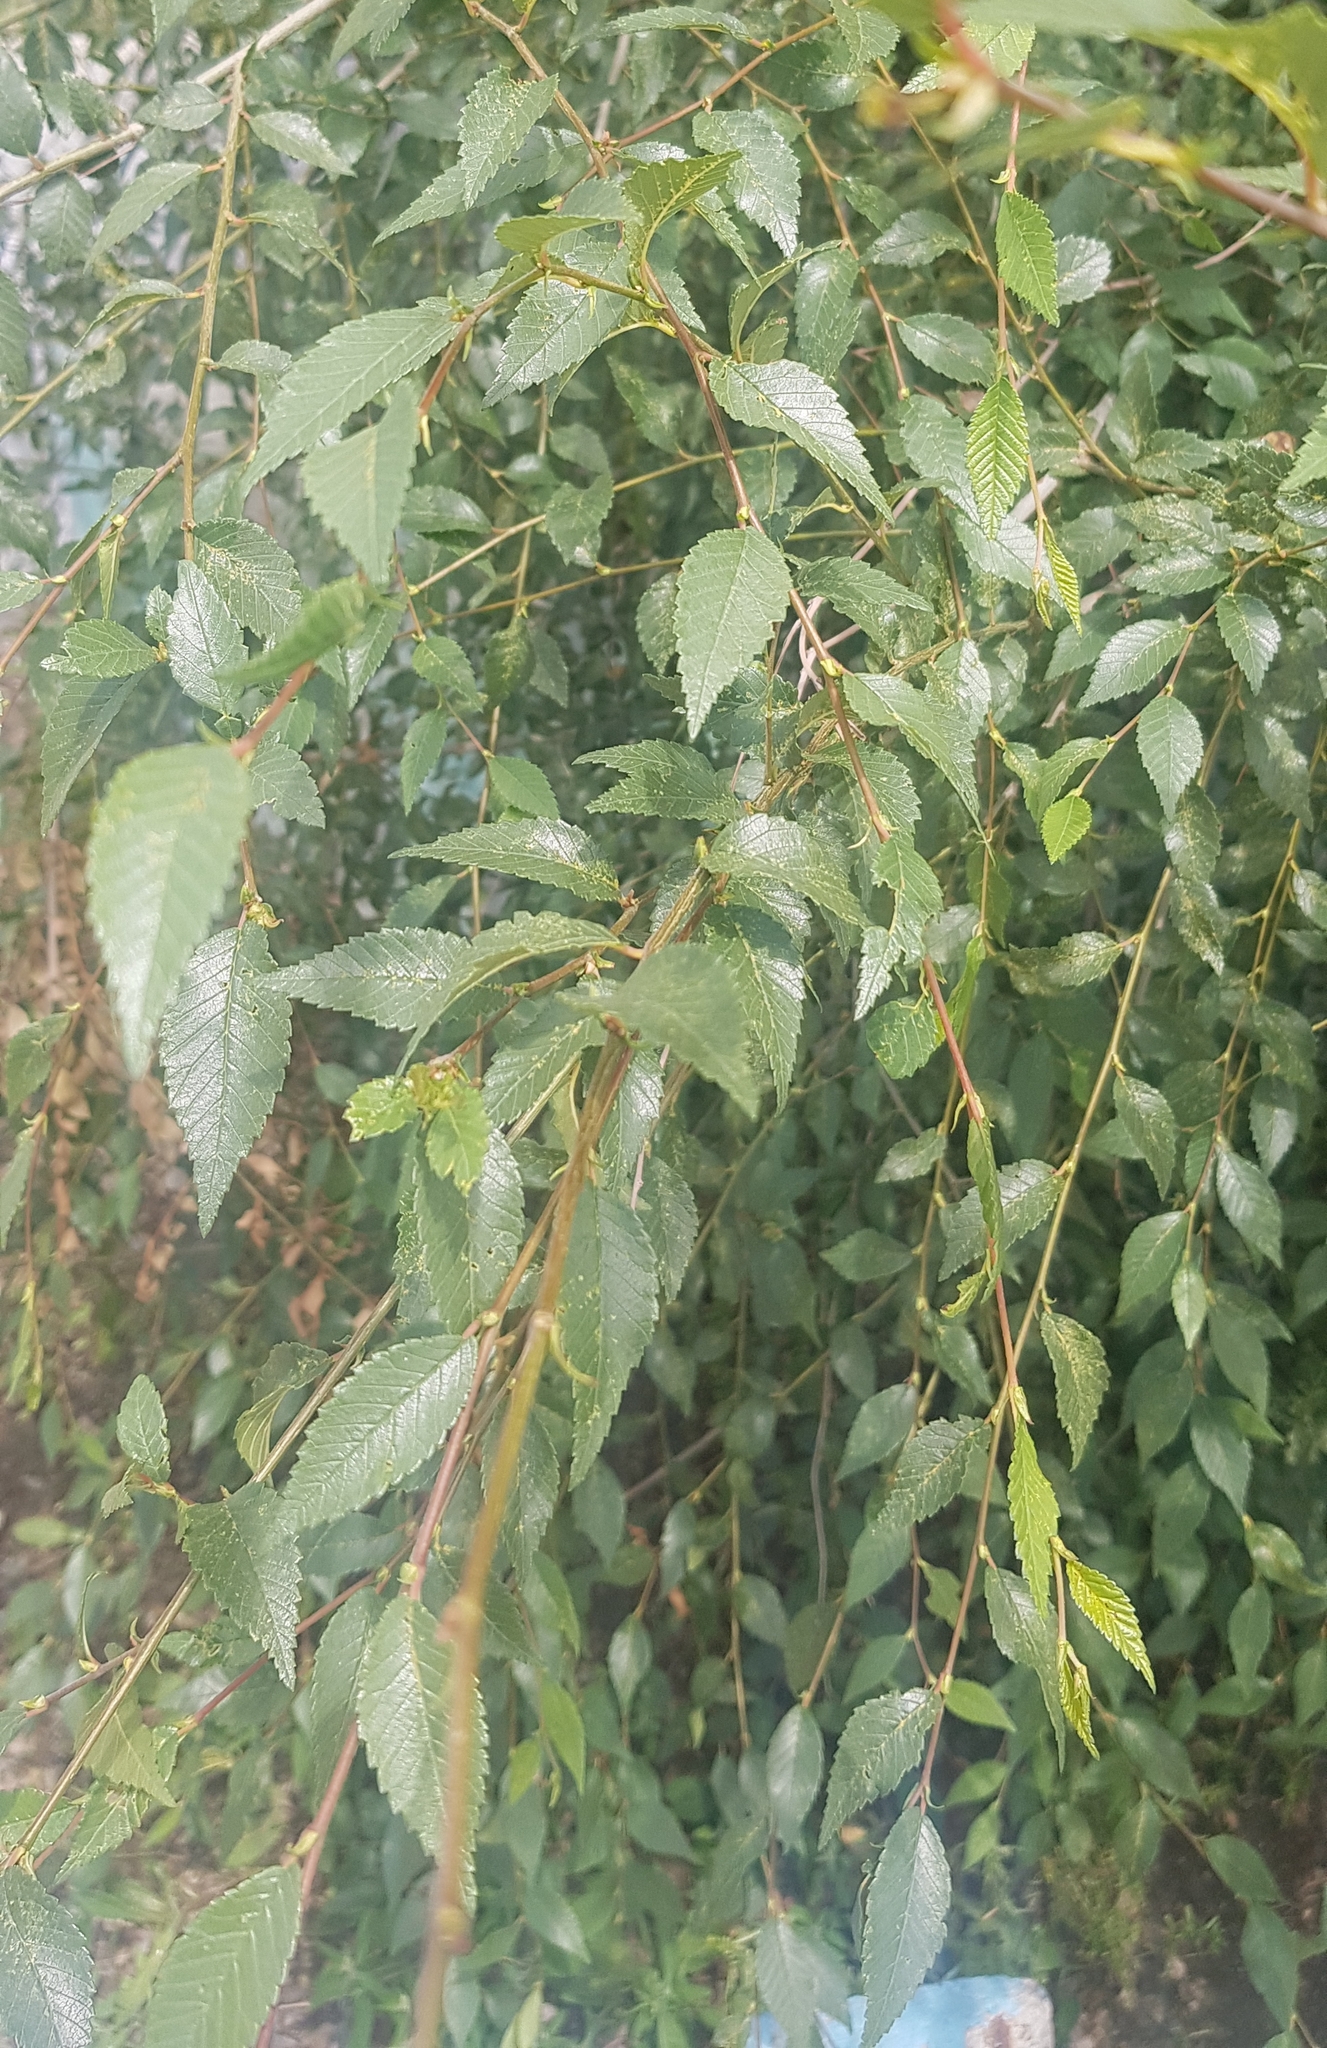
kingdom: Plantae
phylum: Tracheophyta
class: Magnoliopsida
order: Rosales
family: Ulmaceae
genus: Ulmus
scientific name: Ulmus pumila
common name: Siberian elm
